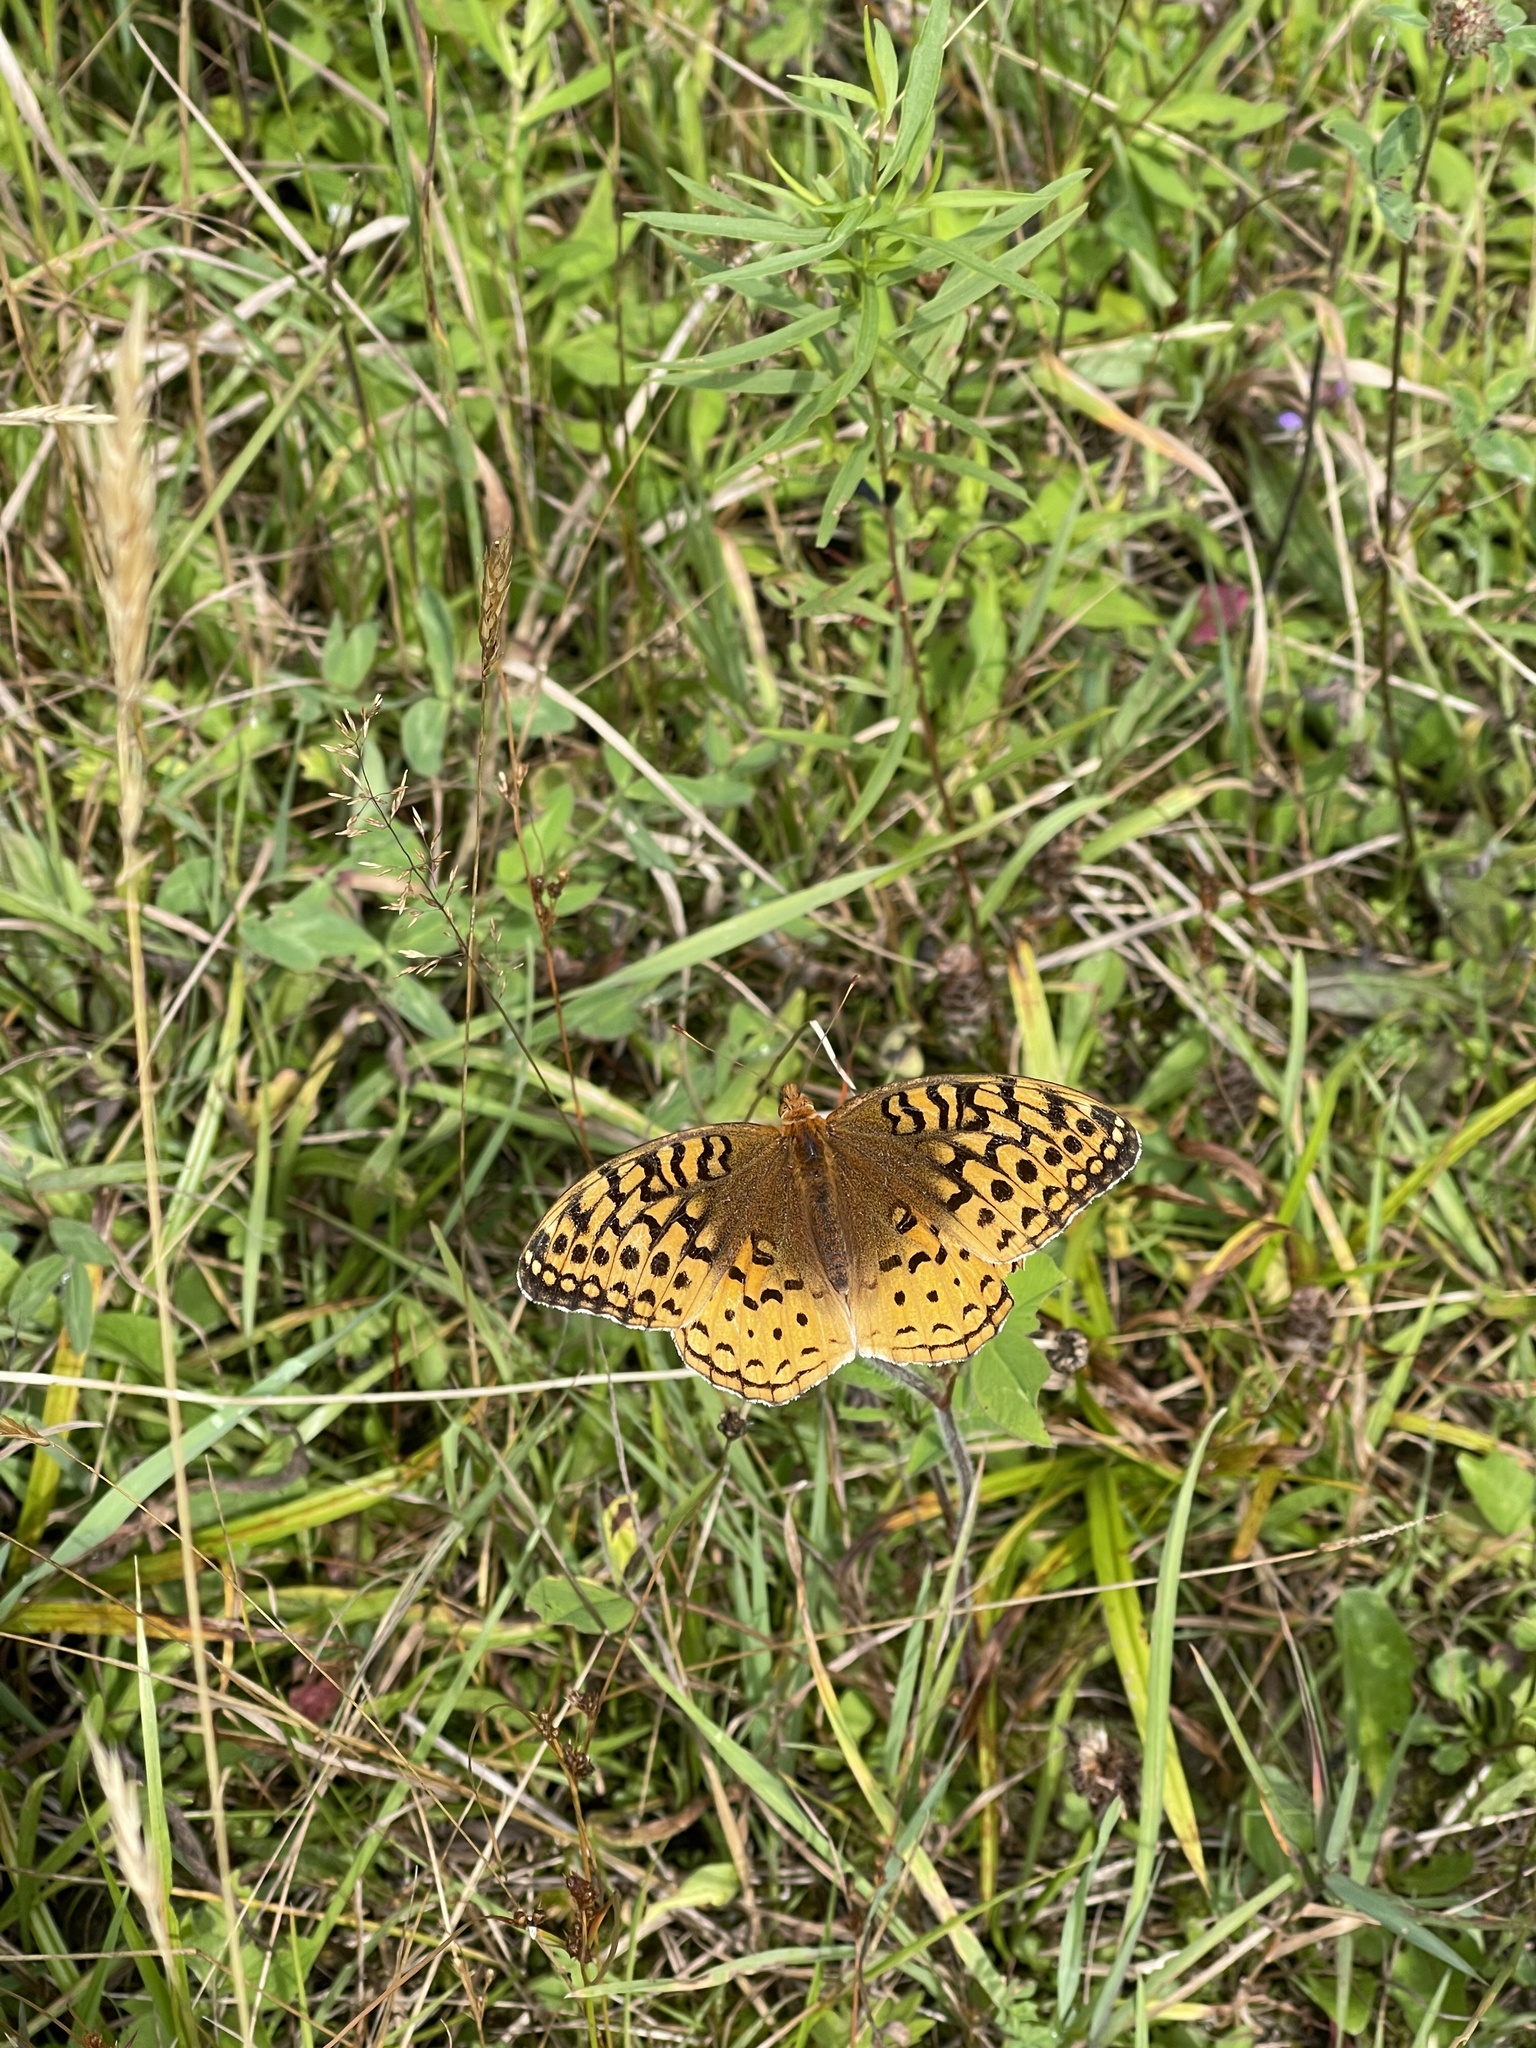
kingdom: Animalia
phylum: Arthropoda
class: Insecta
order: Lepidoptera
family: Nymphalidae
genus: Speyeria
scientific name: Speyeria cybele
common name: Great spangled fritillary
